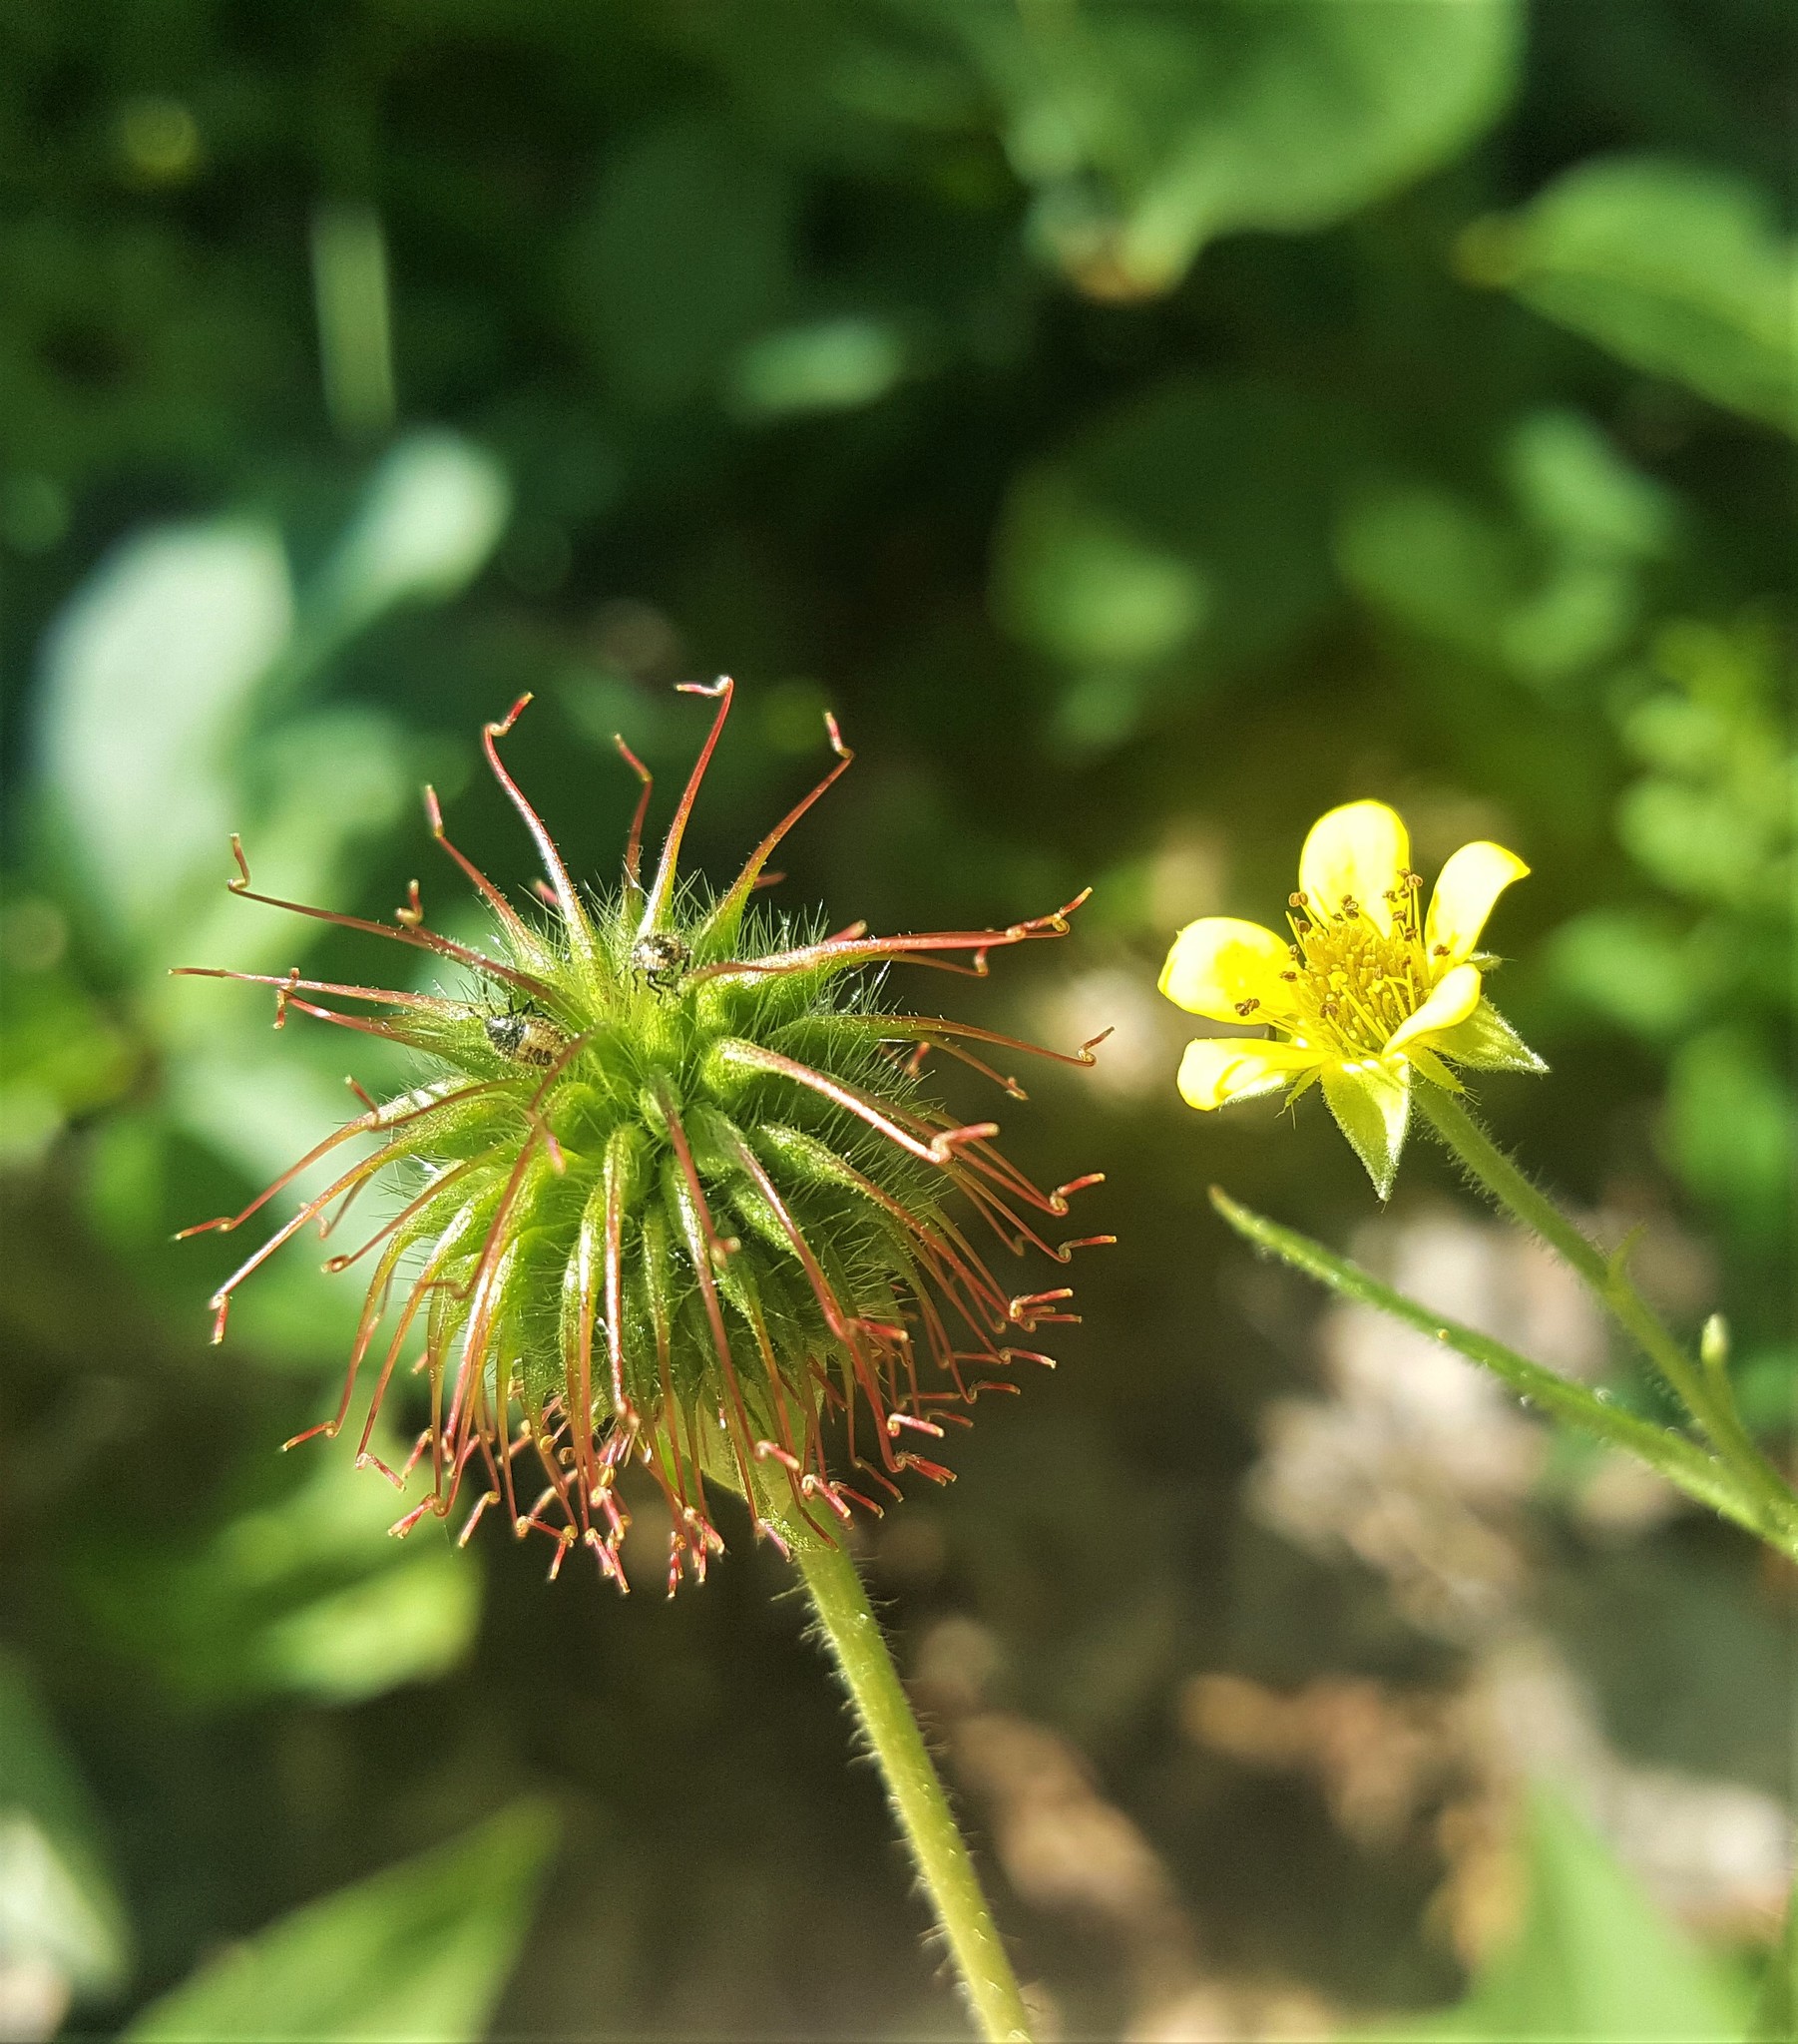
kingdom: Plantae
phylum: Tracheophyta
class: Magnoliopsida
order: Rosales
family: Rosaceae
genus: Geum
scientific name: Geum urbanum
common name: Wood avens
